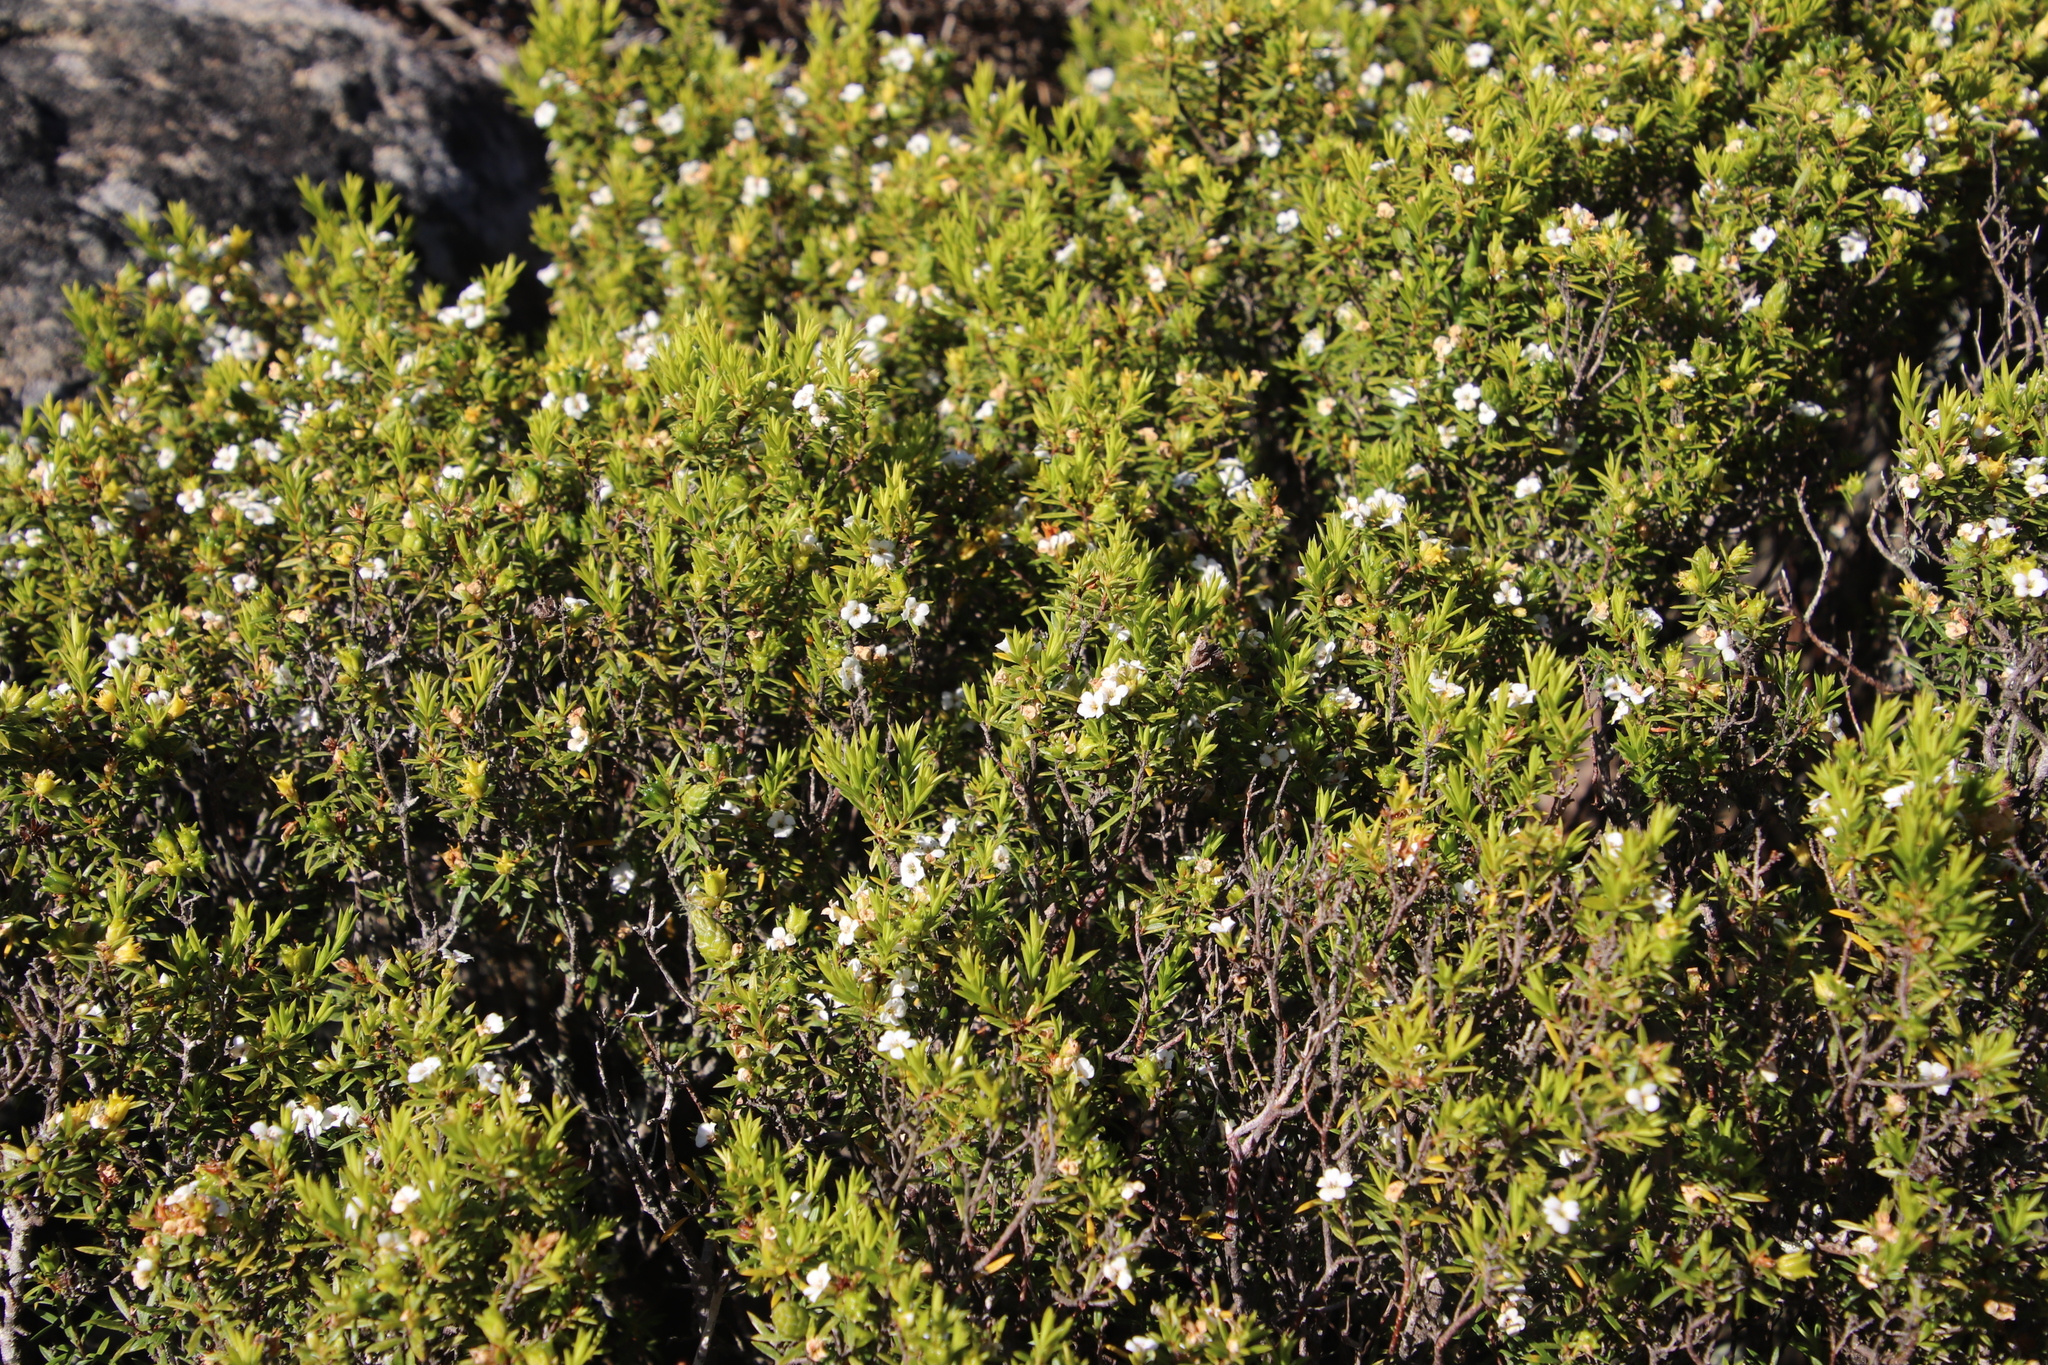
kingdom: Plantae
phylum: Tracheophyta
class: Magnoliopsida
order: Sapindales
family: Rutaceae
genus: Coleonema
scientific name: Coleonema album
